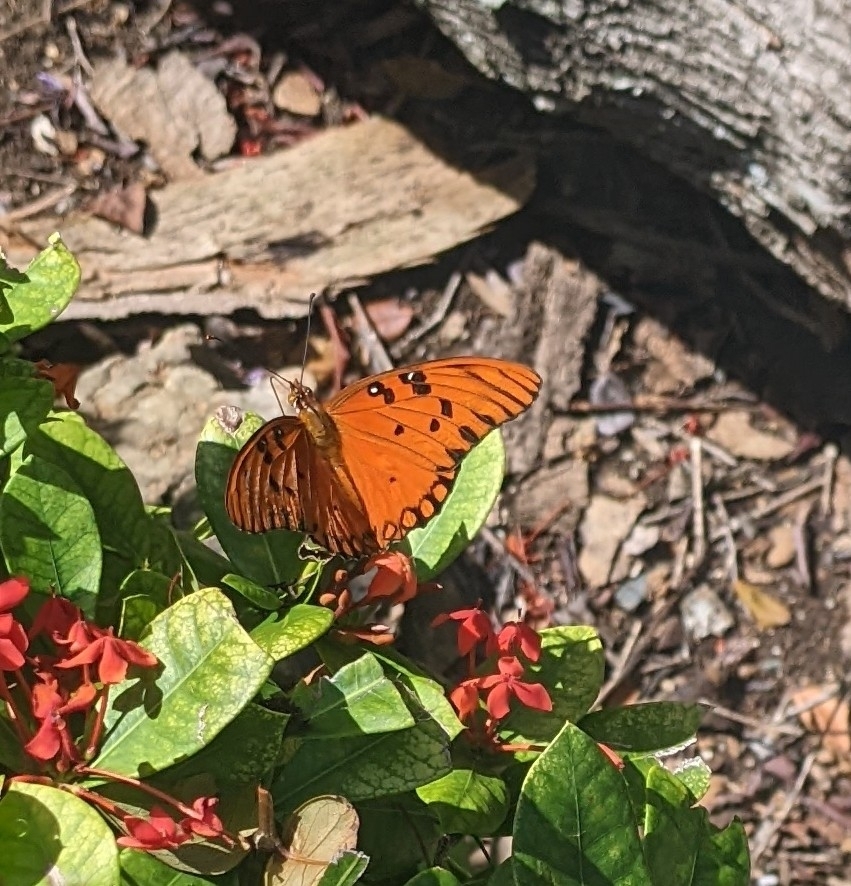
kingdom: Animalia
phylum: Arthropoda
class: Insecta
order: Lepidoptera
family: Nymphalidae
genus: Dione
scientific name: Dione vanillae
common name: Gulf fritillary
